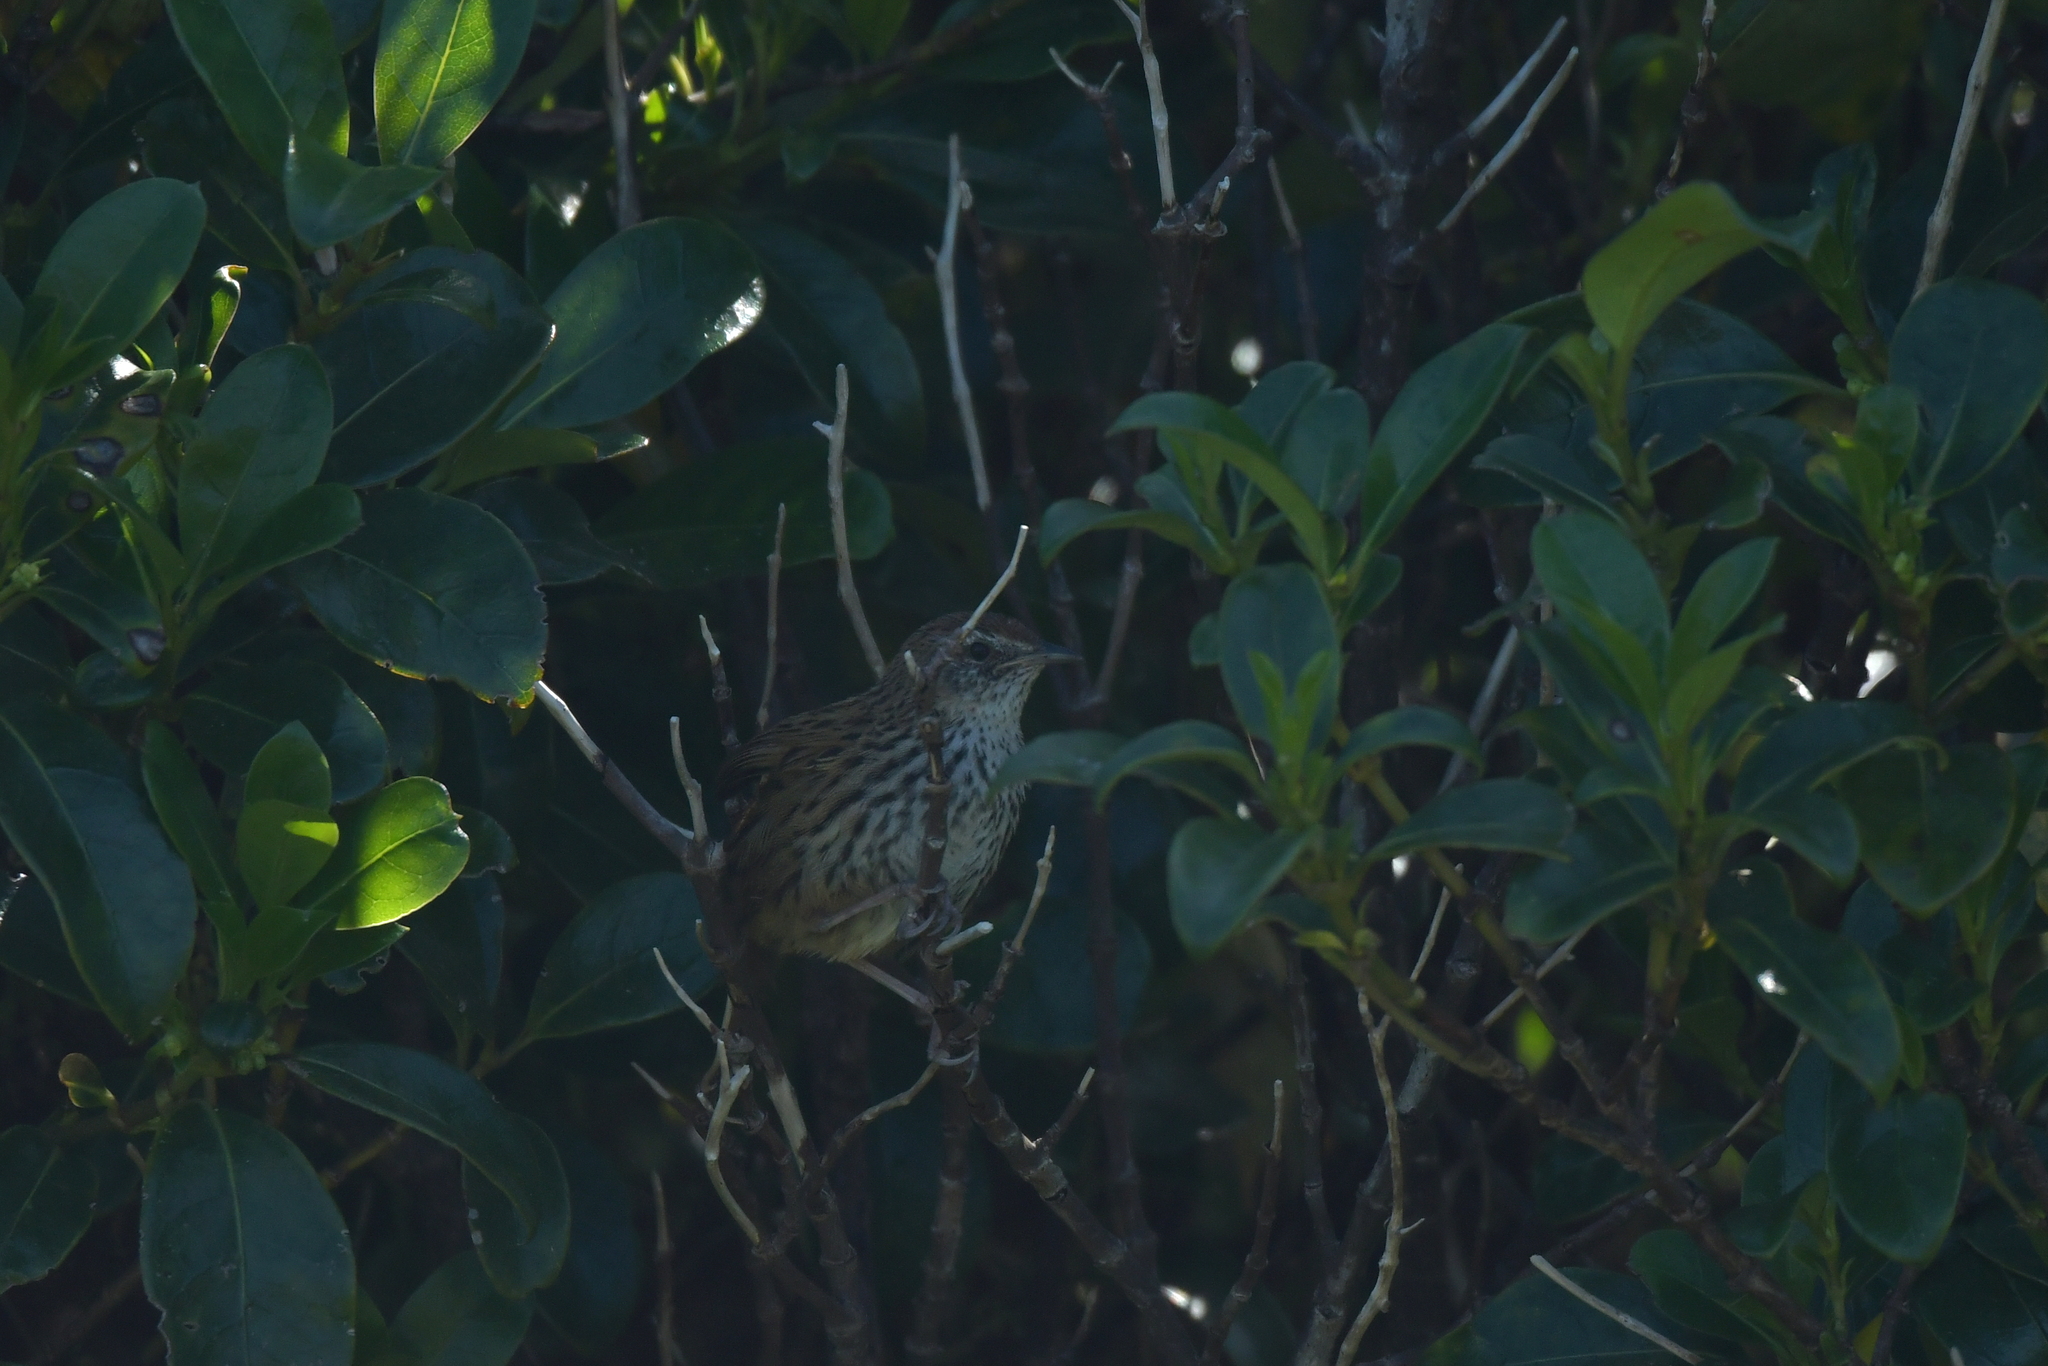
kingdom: Animalia
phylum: Chordata
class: Aves
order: Passeriformes
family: Locustellidae
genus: Megalurus
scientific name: Megalurus punctatus
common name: New zealand fernbird
